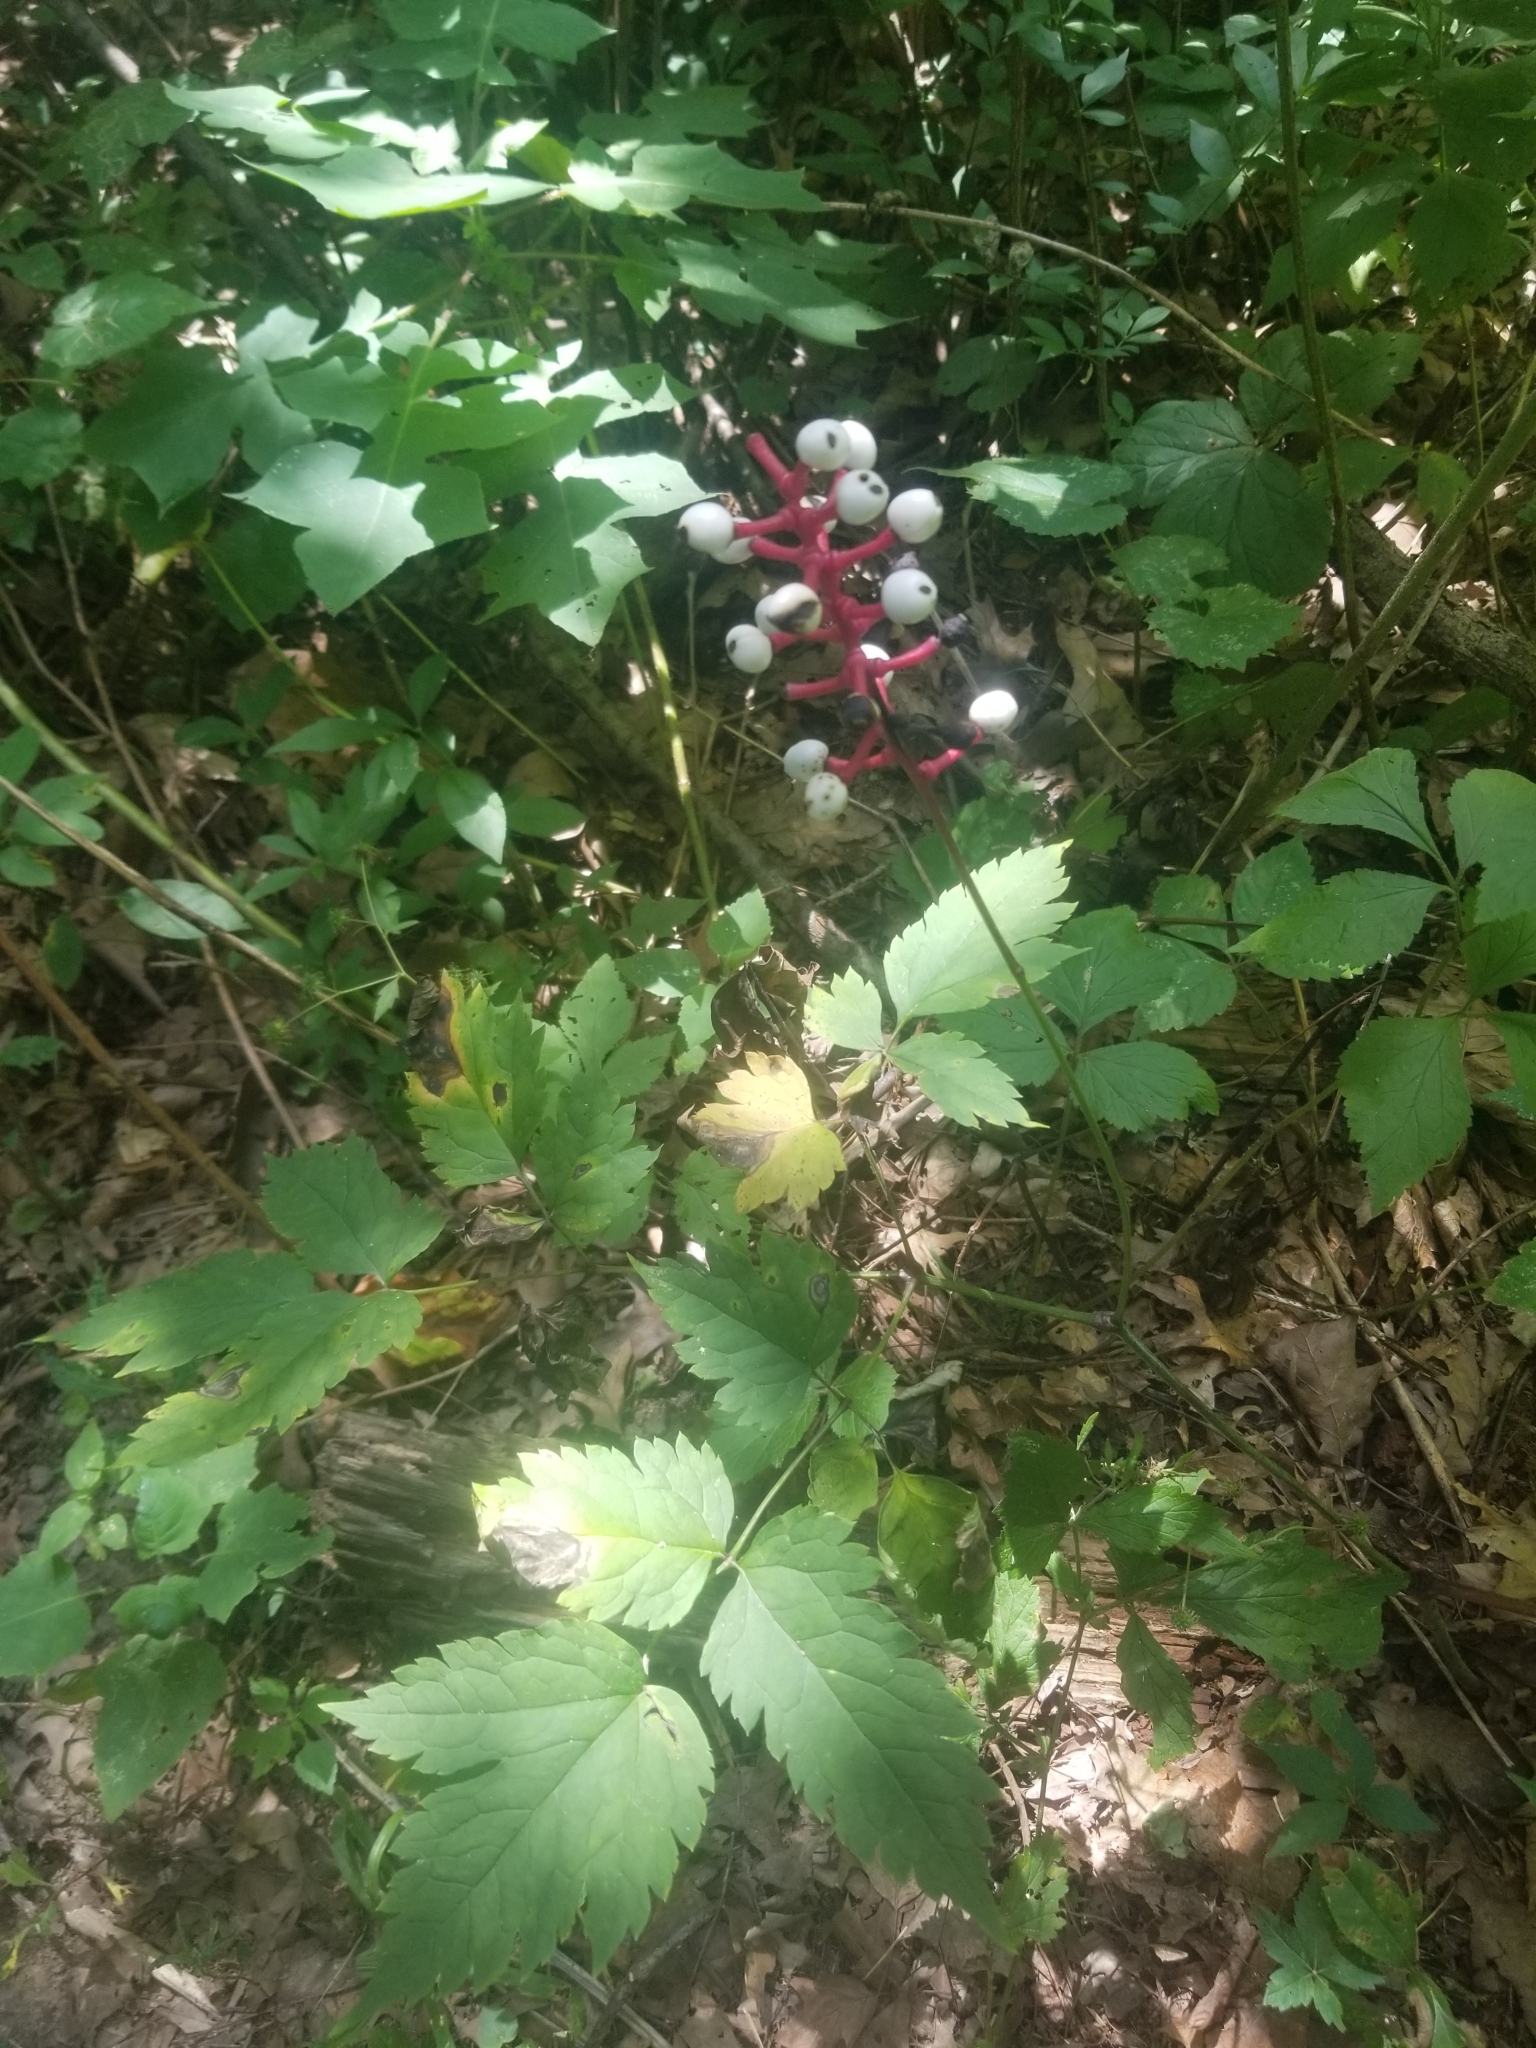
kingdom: Plantae
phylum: Tracheophyta
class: Magnoliopsida
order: Ranunculales
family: Ranunculaceae
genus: Actaea
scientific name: Actaea pachypoda
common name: Doll's-eyes
